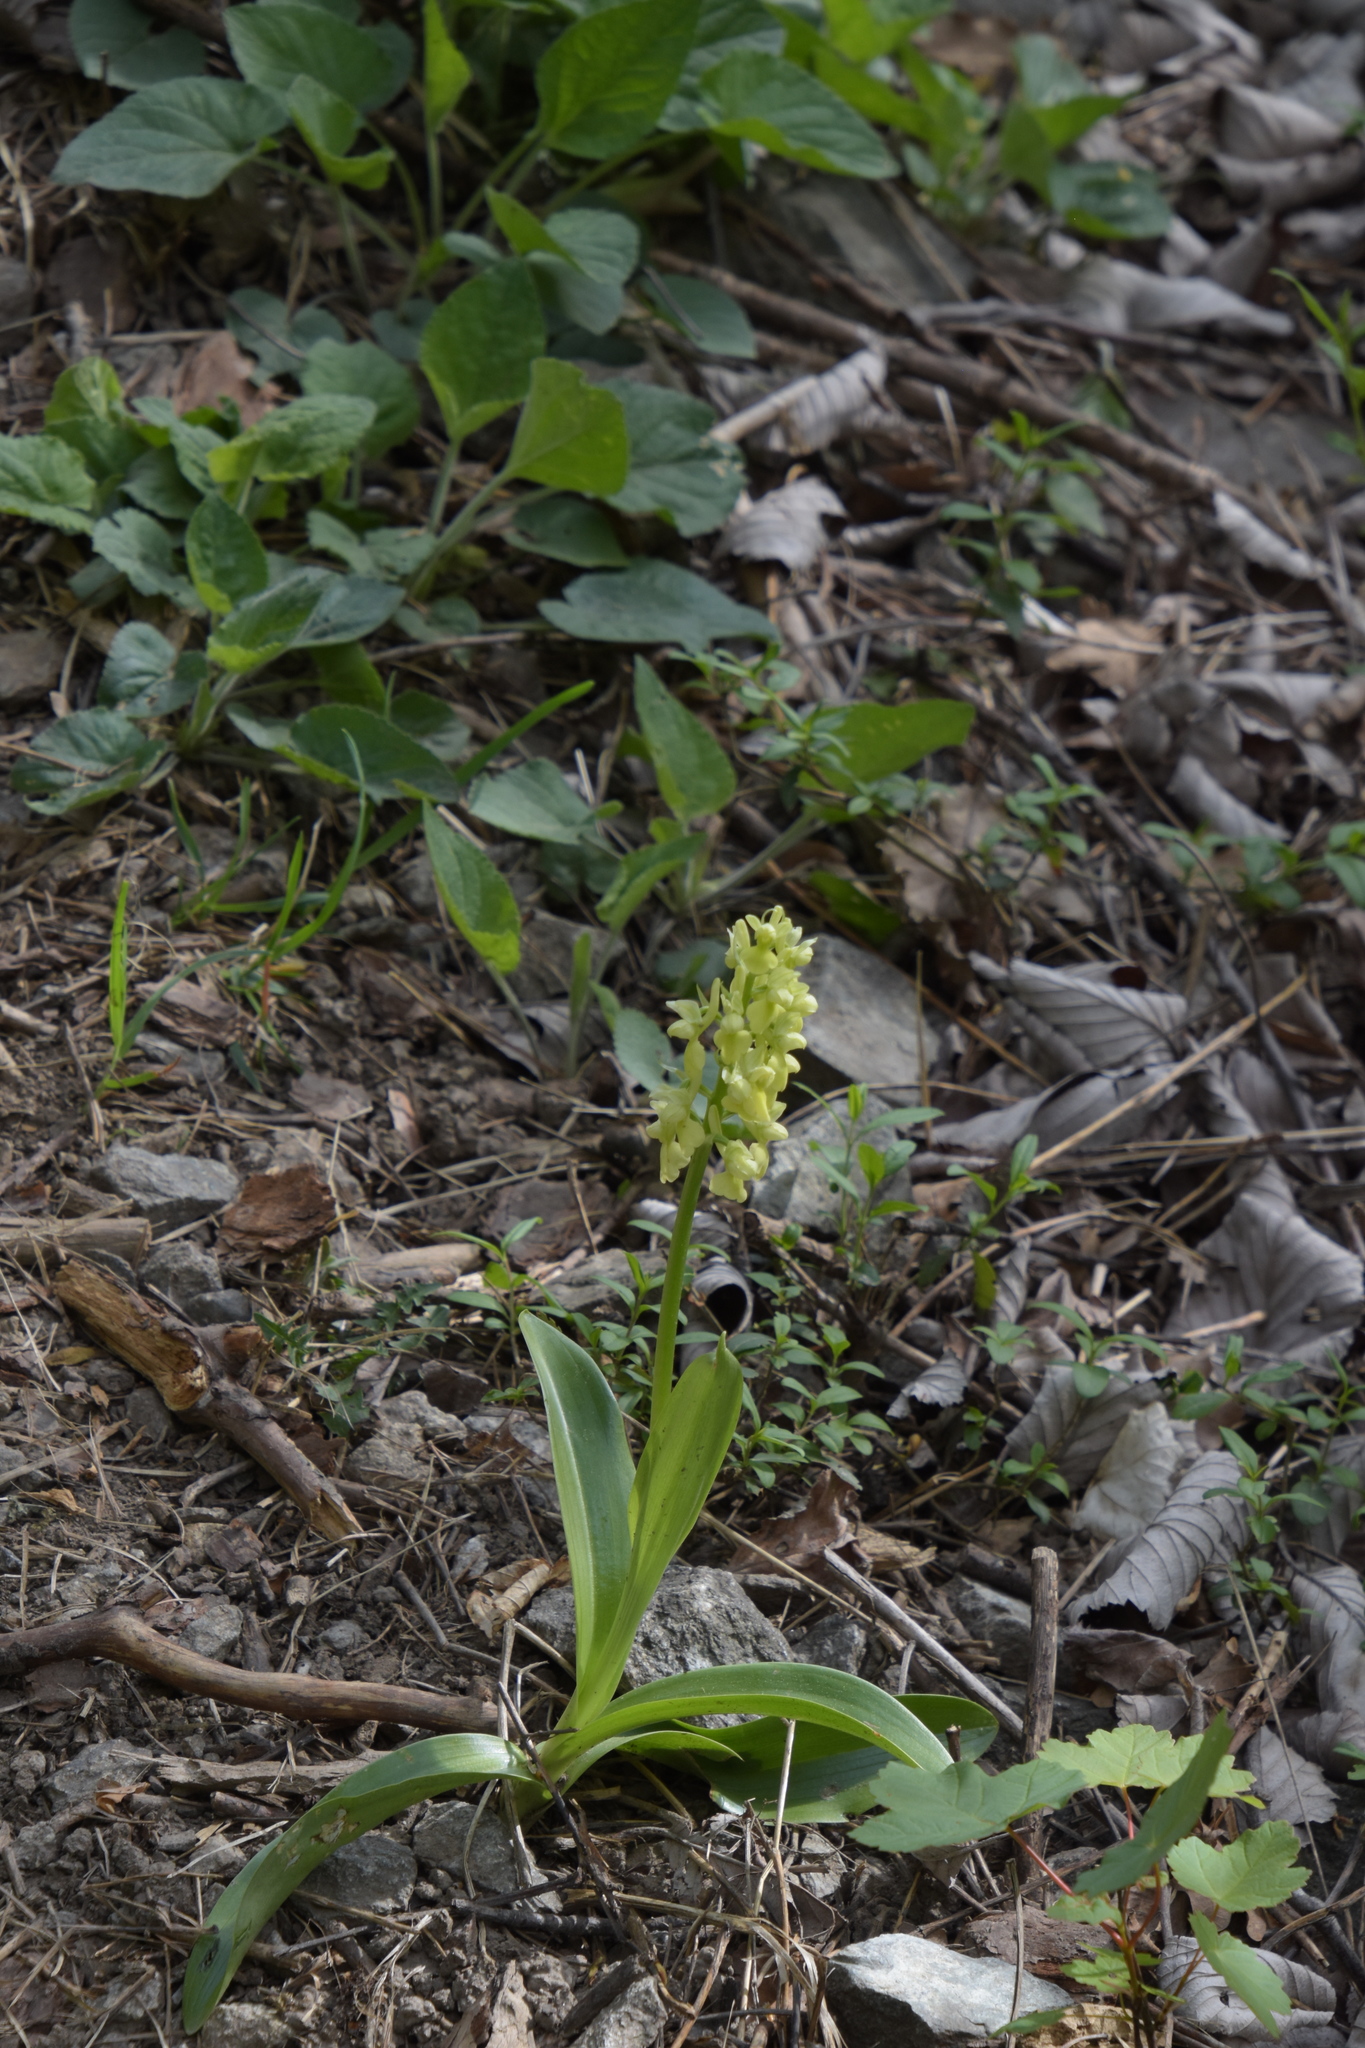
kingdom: Plantae
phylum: Tracheophyta
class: Liliopsida
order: Asparagales
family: Orchidaceae
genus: Orchis
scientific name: Orchis pallens
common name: Pale-flowered orchid
